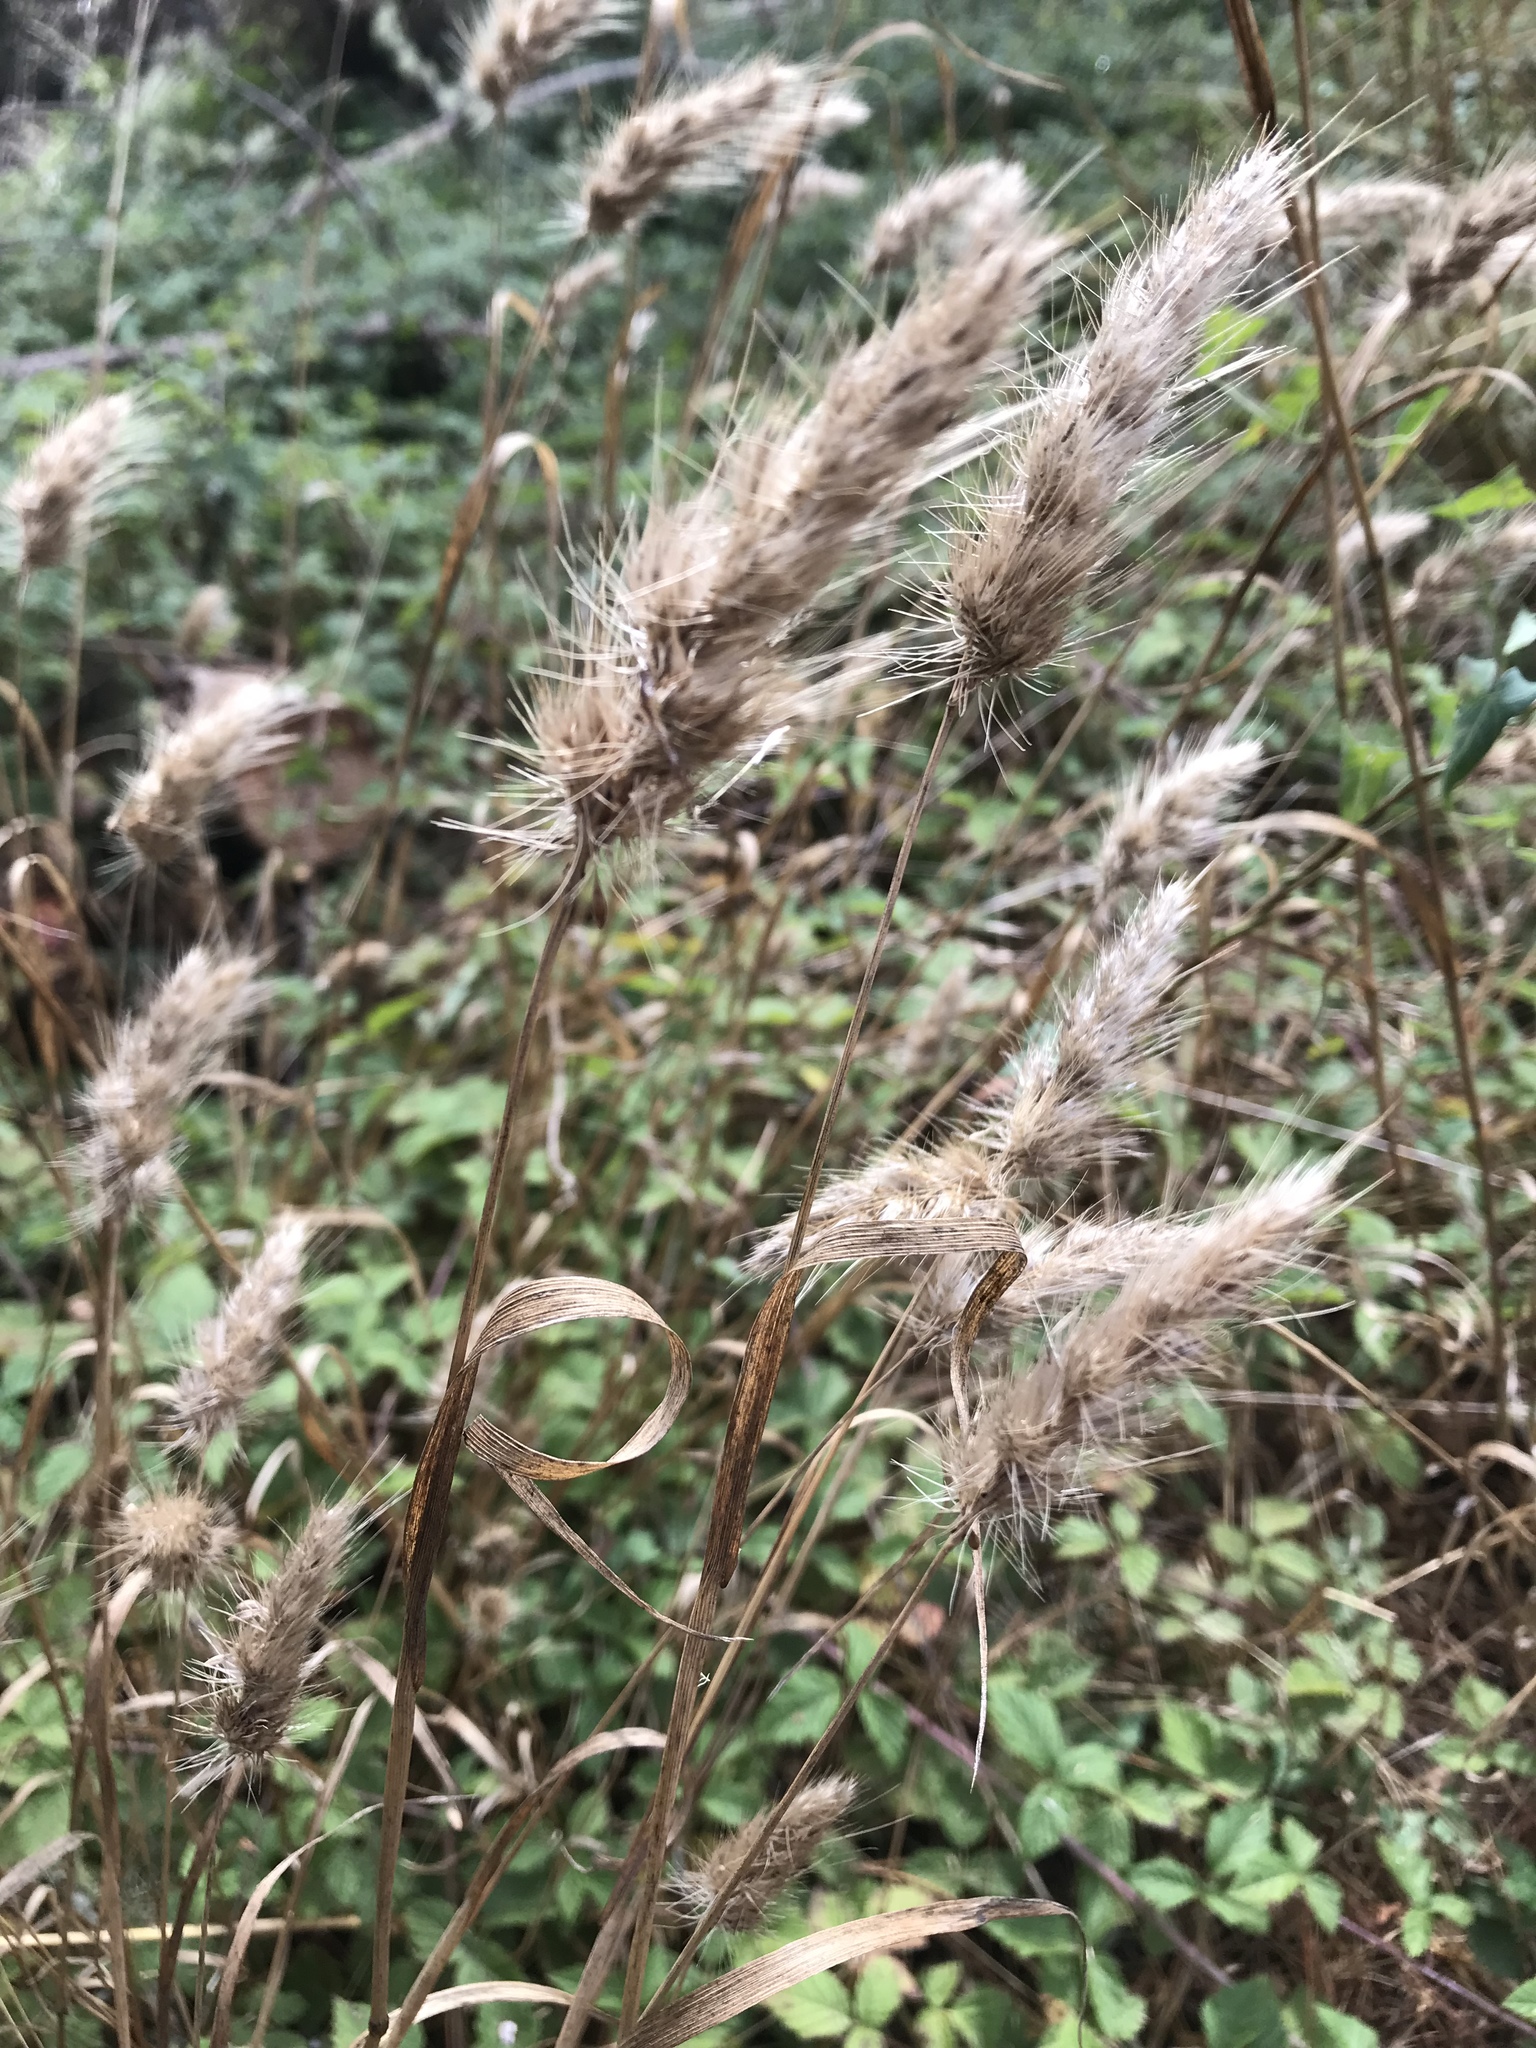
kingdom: Plantae
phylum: Tracheophyta
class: Liliopsida
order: Poales
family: Poaceae
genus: Cynosurus
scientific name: Cynosurus echinatus
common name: Rough dog's-tail
